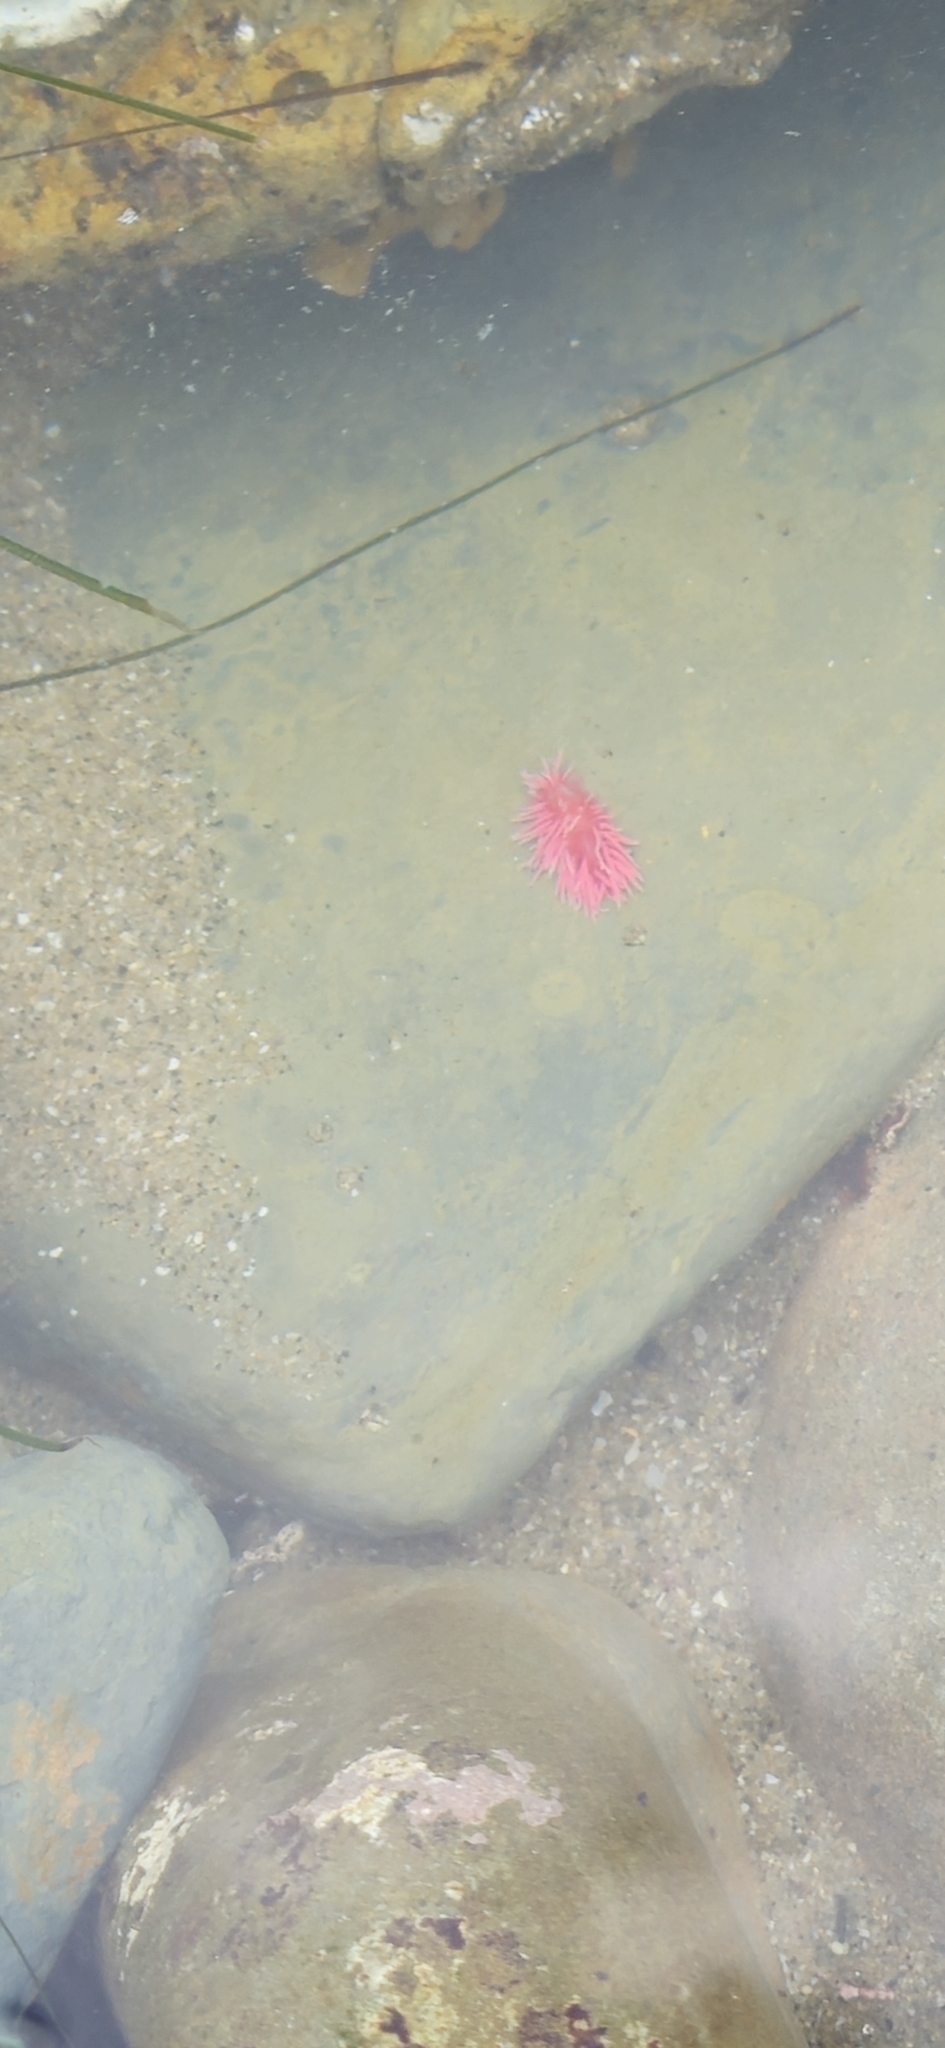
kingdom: Animalia
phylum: Mollusca
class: Gastropoda
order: Nudibranchia
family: Goniodorididae
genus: Okenia
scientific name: Okenia
